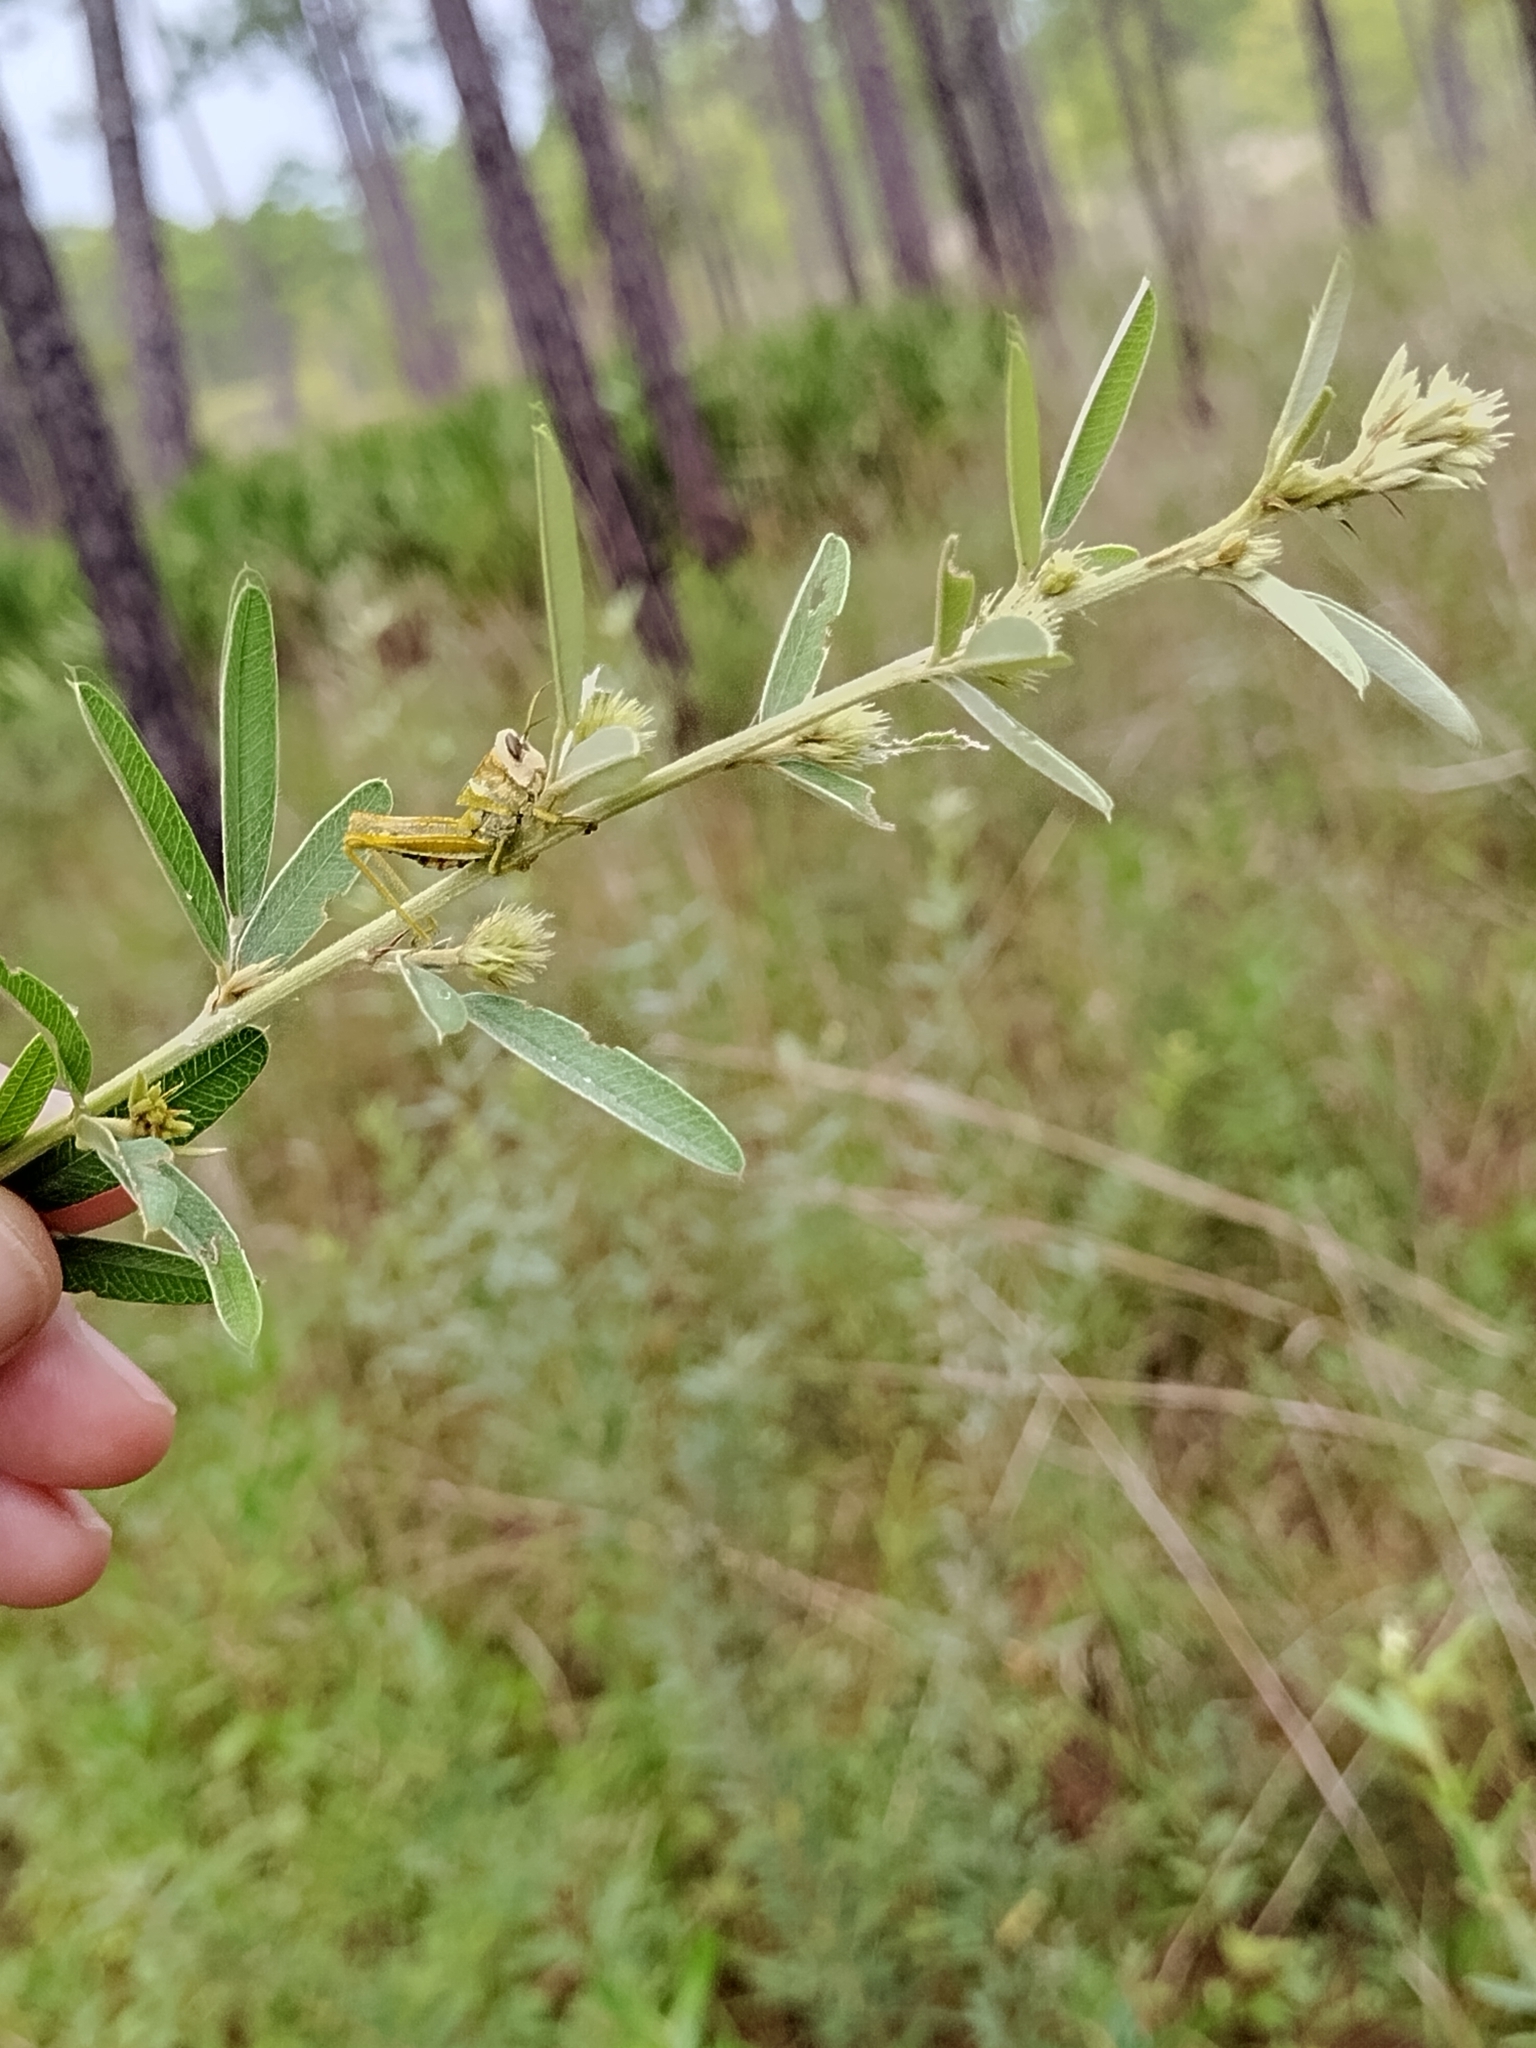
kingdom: Plantae
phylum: Tracheophyta
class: Magnoliopsida
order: Fabales
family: Fabaceae
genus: Lespedeza
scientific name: Lespedeza capitata
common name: Dusty clover
